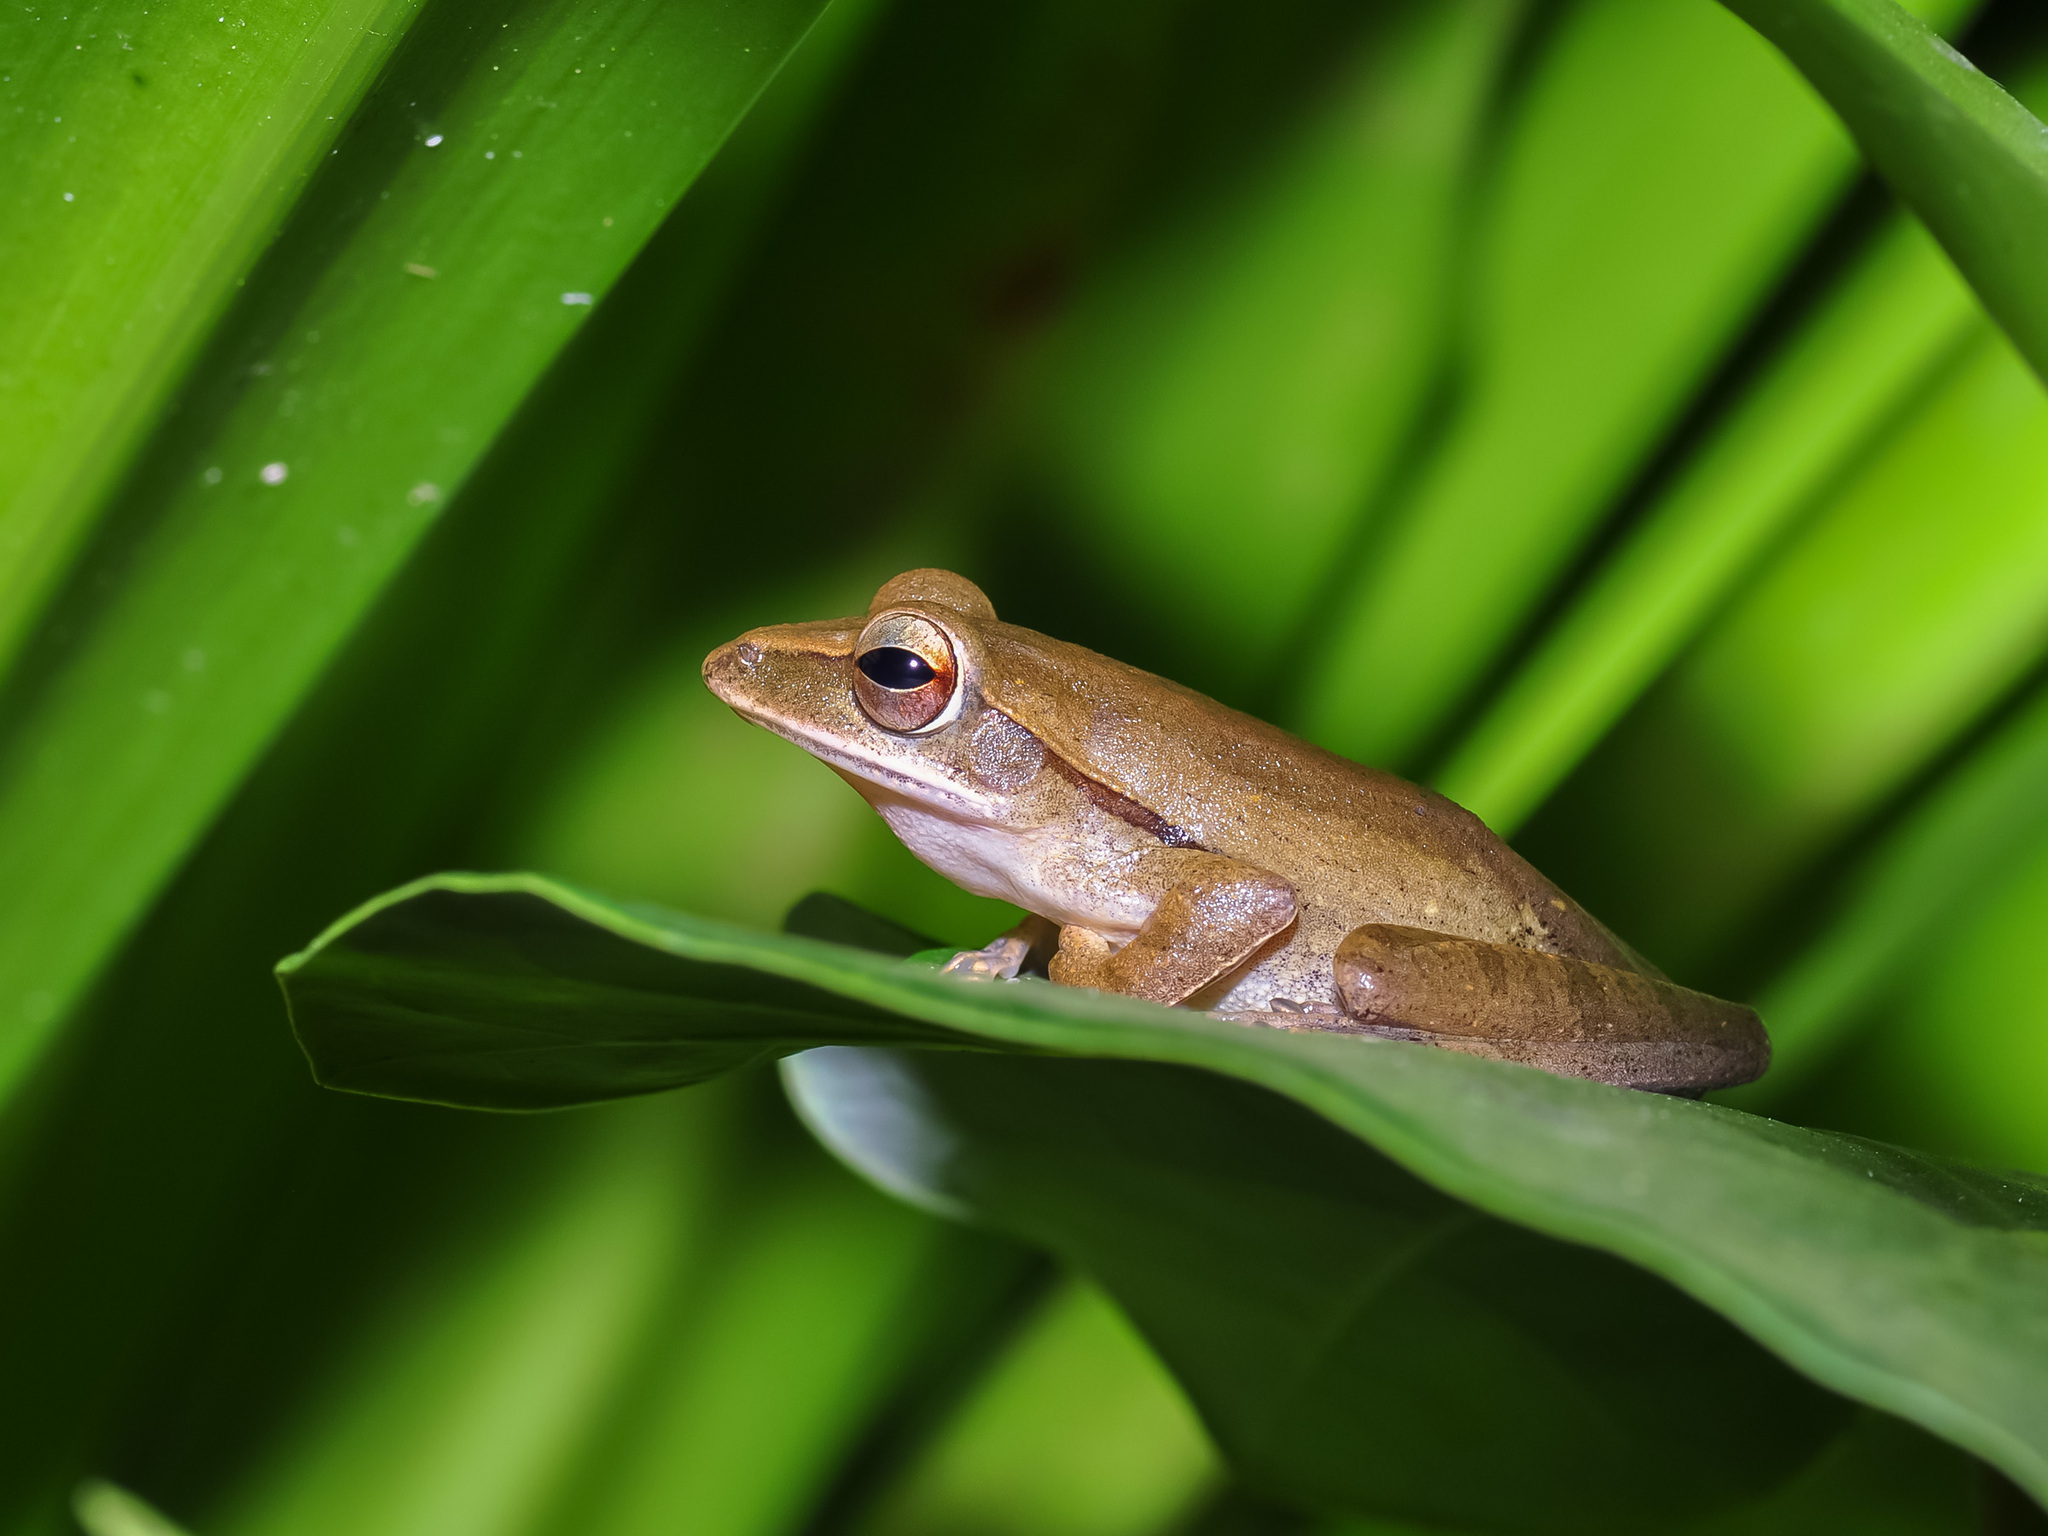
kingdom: Animalia
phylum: Chordata
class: Amphibia
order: Anura
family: Rhacophoridae
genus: Polypedates
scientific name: Polypedates leucomystax
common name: Common tree frog/four-lined tree frog
